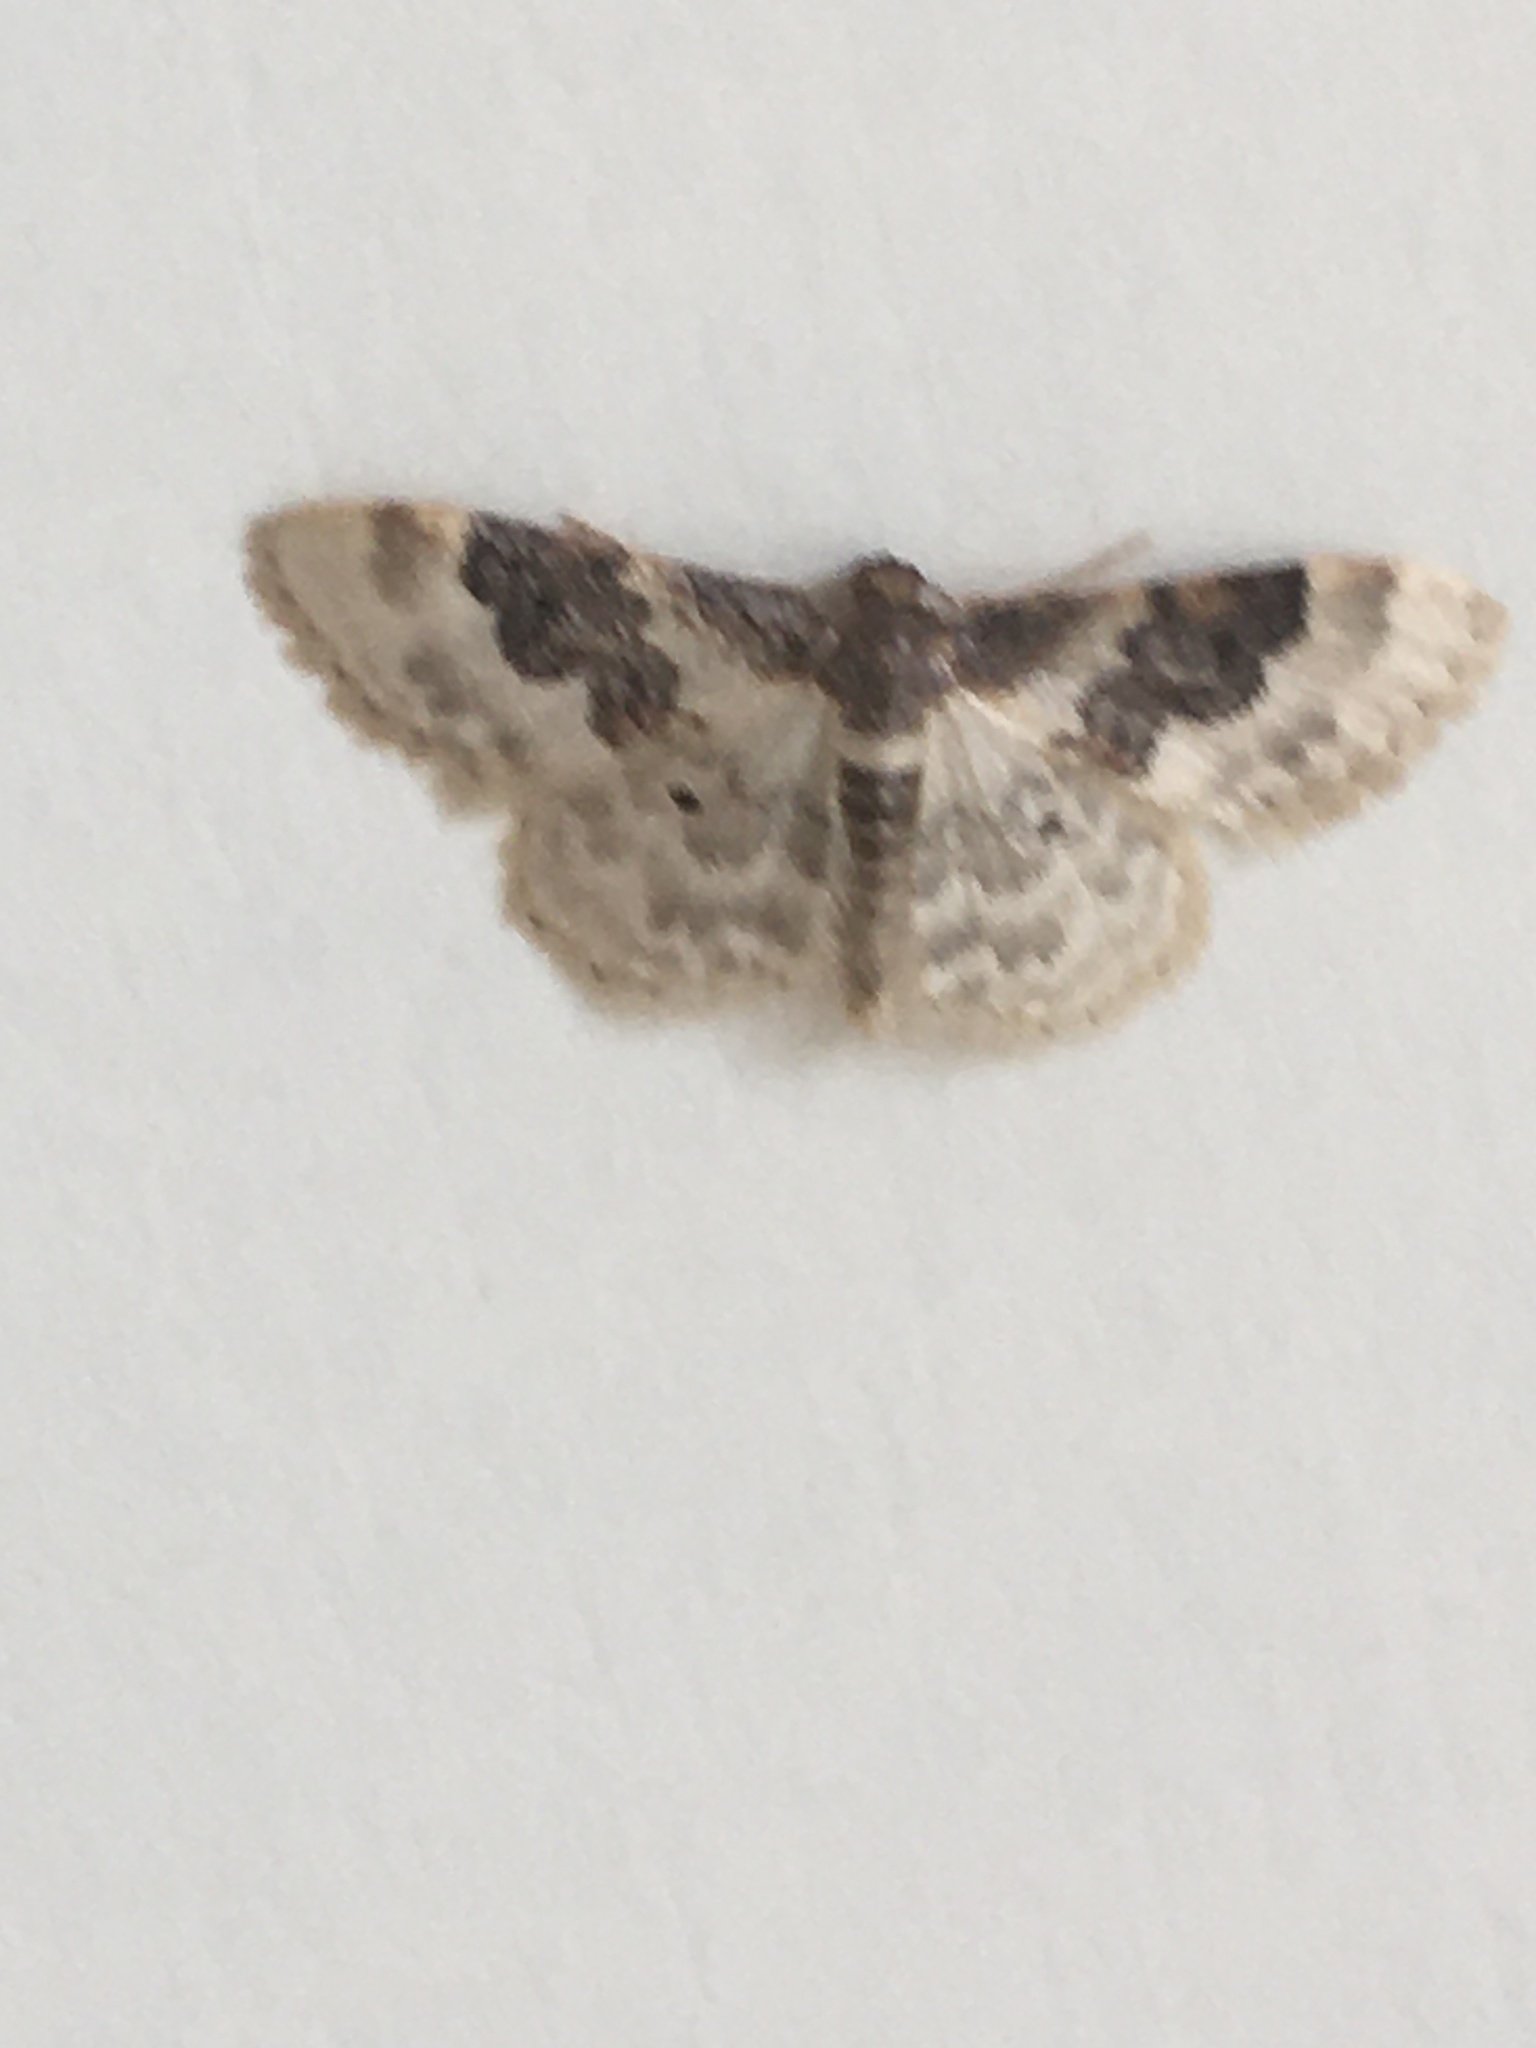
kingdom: Animalia
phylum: Arthropoda
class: Insecta
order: Lepidoptera
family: Geometridae
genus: Idaea
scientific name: Idaea rusticata
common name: Least carpet
